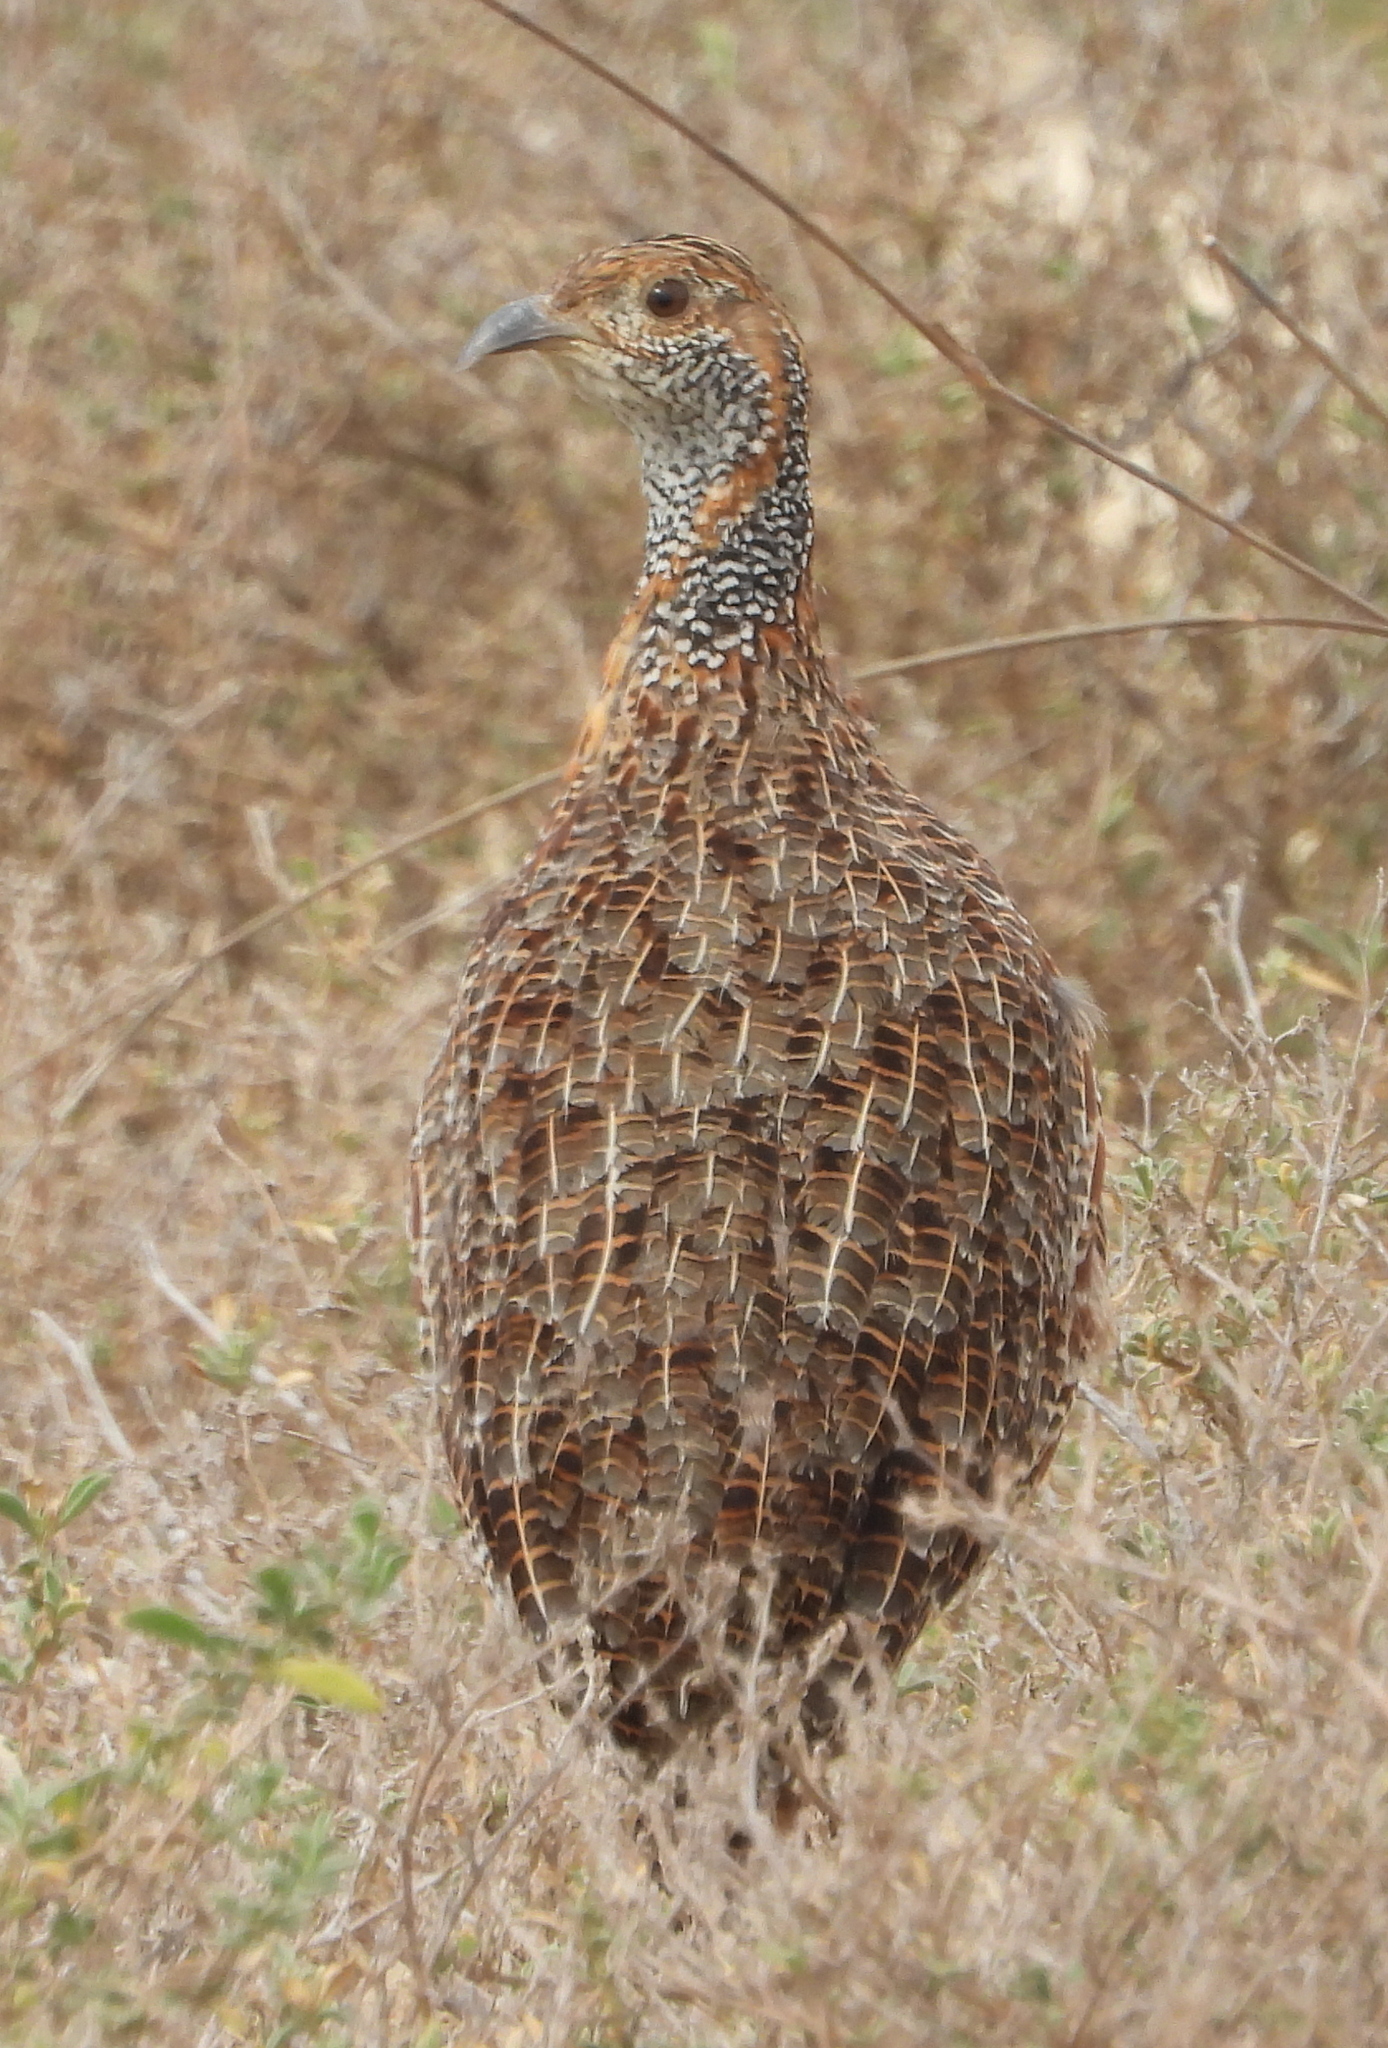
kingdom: Animalia
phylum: Chordata
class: Aves
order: Galliformes
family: Phasianidae
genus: Scleroptila
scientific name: Scleroptila afra
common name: Grey-winged francolin
